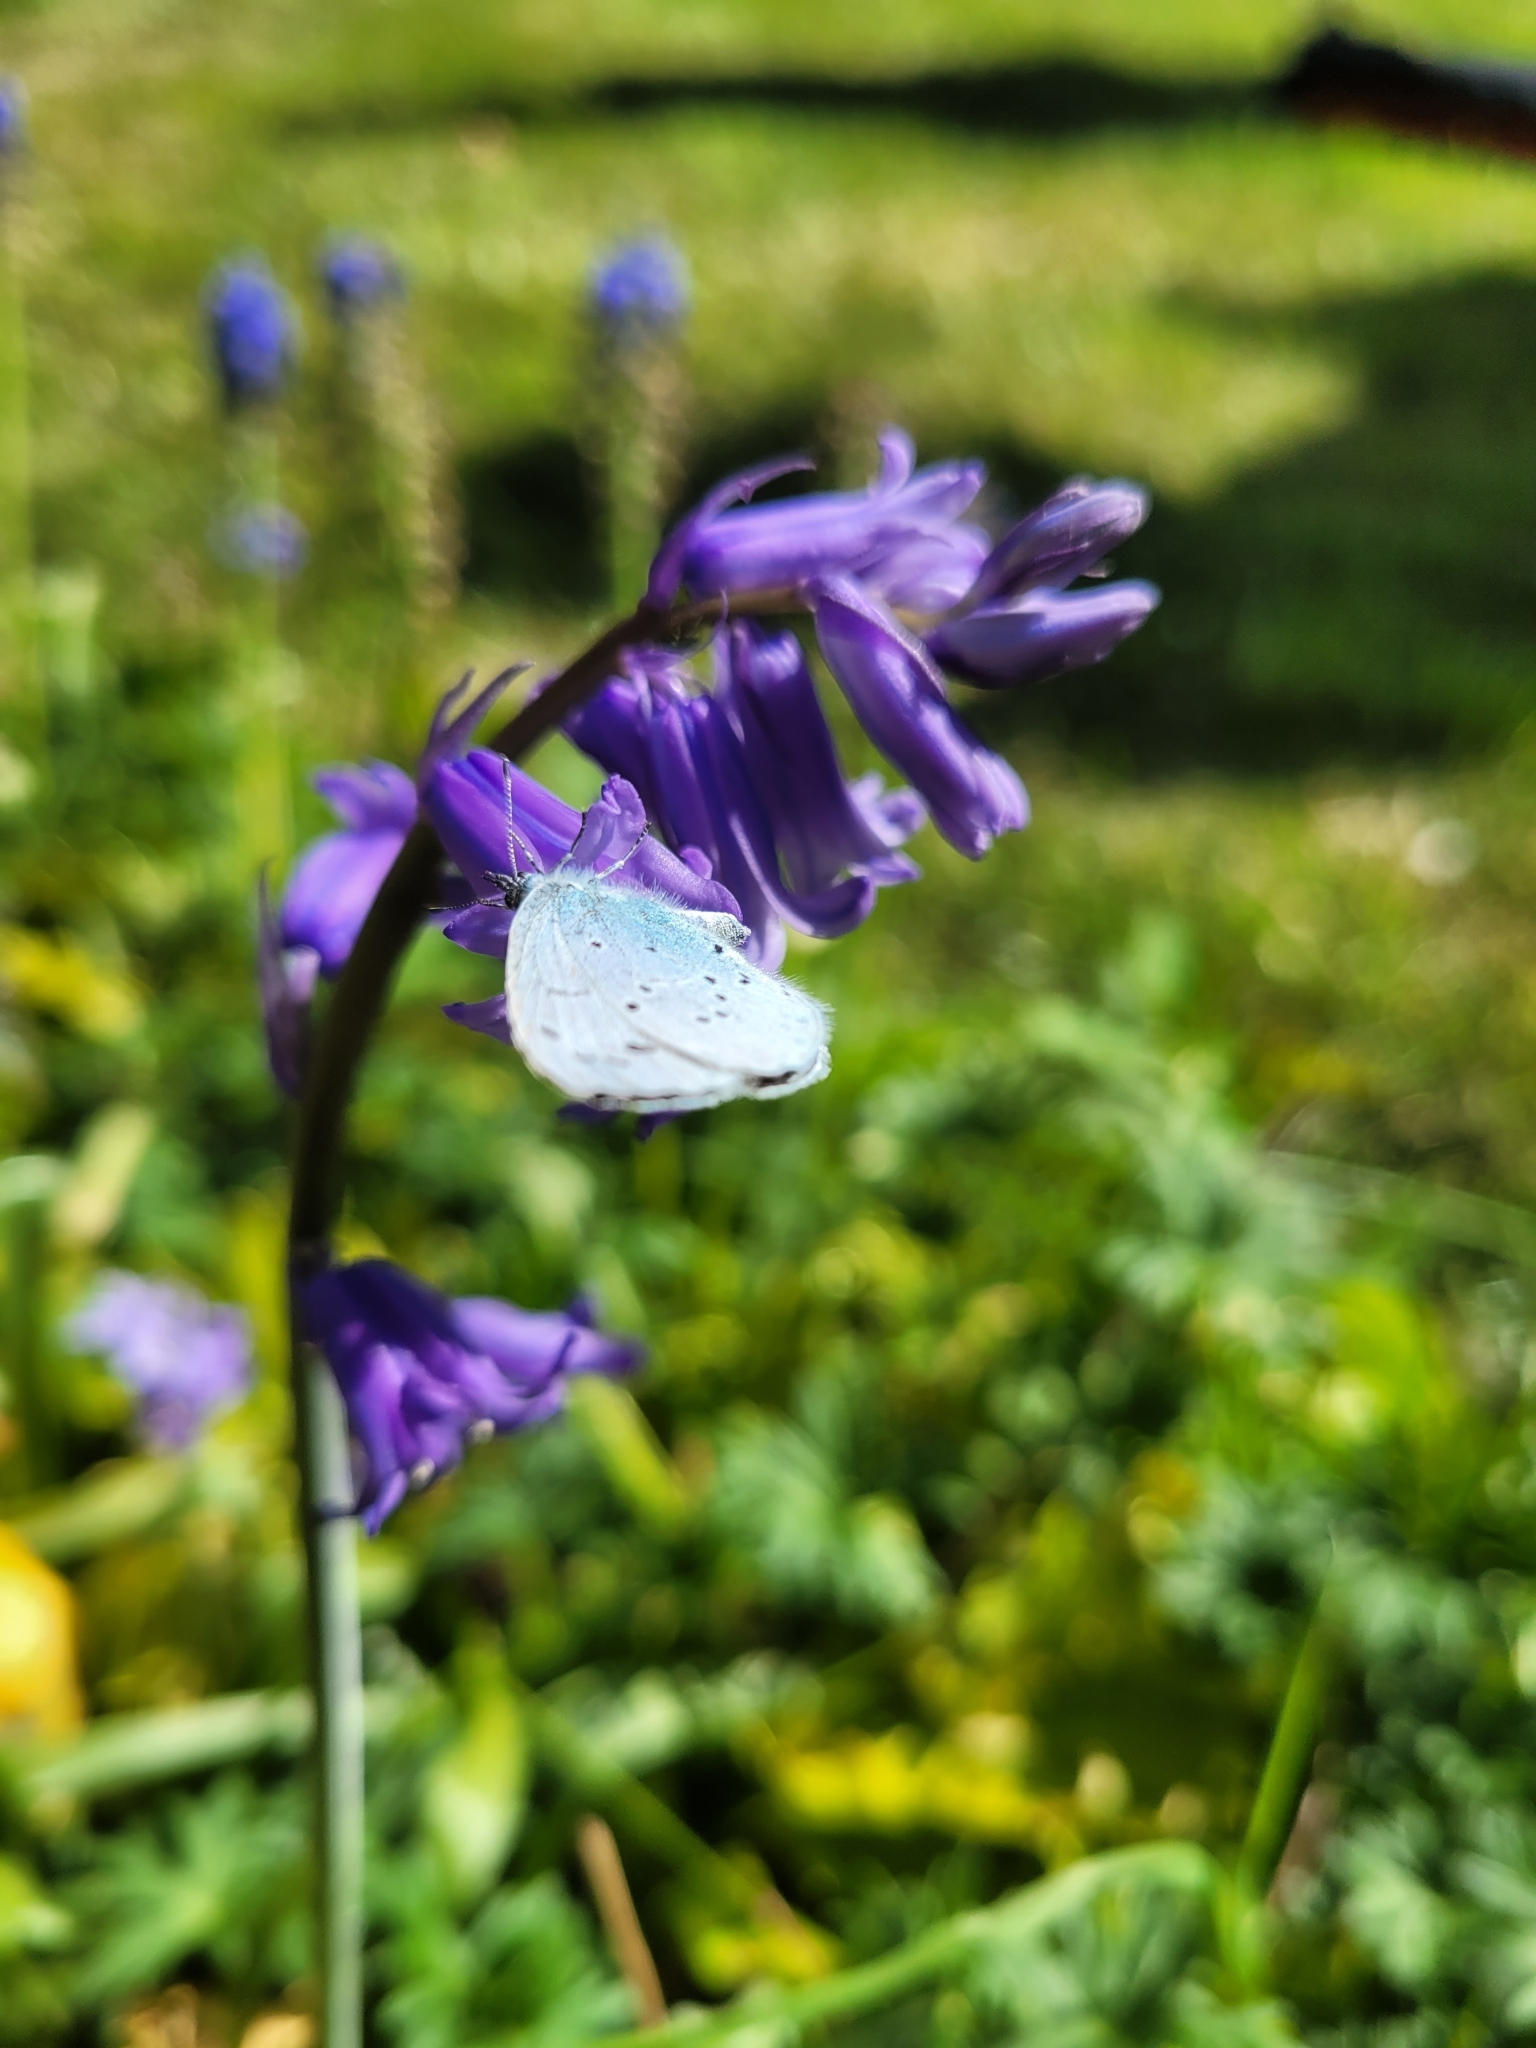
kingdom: Animalia
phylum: Arthropoda
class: Insecta
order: Lepidoptera
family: Lycaenidae
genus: Celastrina
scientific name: Celastrina argiolus
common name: Holly blue
